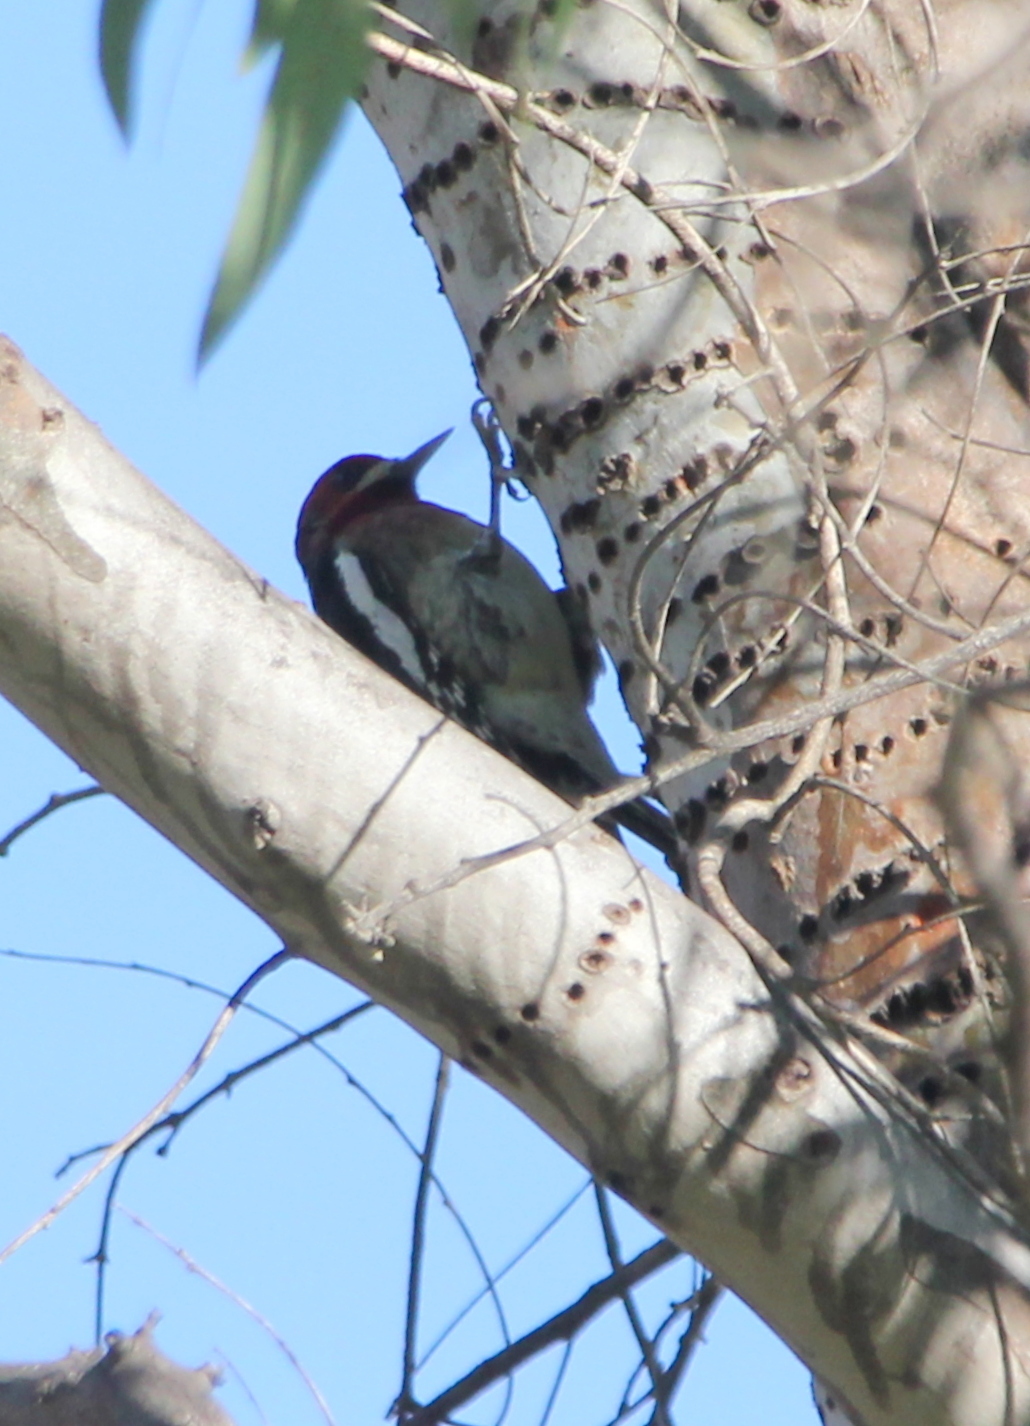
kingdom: Animalia
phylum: Chordata
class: Aves
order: Piciformes
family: Picidae
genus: Sphyrapicus
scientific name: Sphyrapicus ruber
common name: Red-breasted sapsucker
